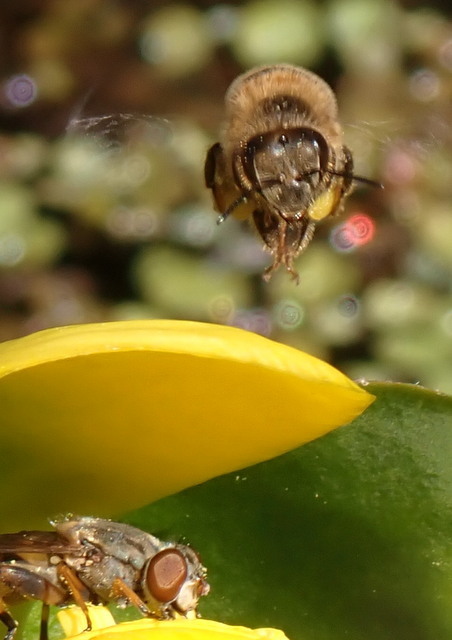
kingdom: Animalia
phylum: Arthropoda
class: Insecta
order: Hymenoptera
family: Apidae
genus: Apis
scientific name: Apis mellifera
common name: Honey bee
